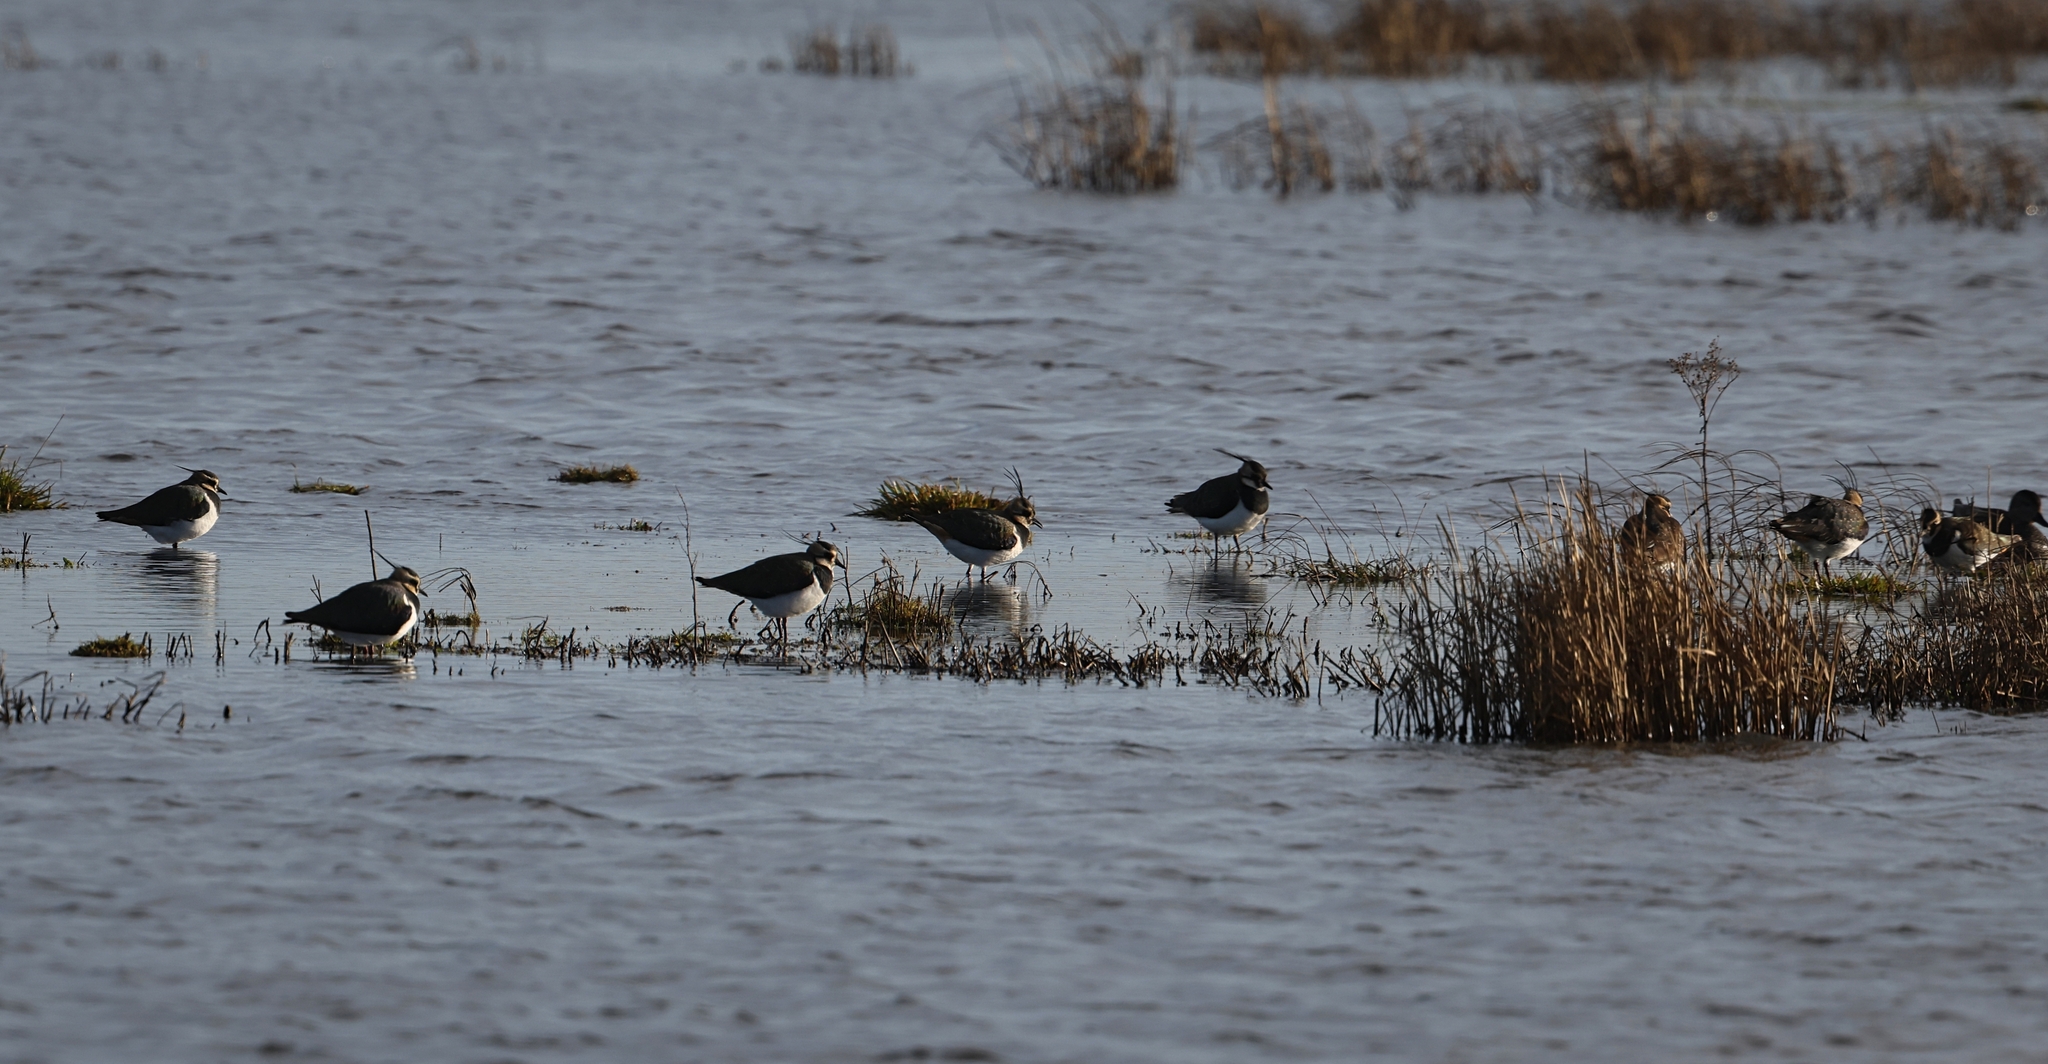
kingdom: Animalia
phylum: Chordata
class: Aves
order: Charadriiformes
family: Charadriidae
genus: Vanellus
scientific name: Vanellus vanellus
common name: Northern lapwing
